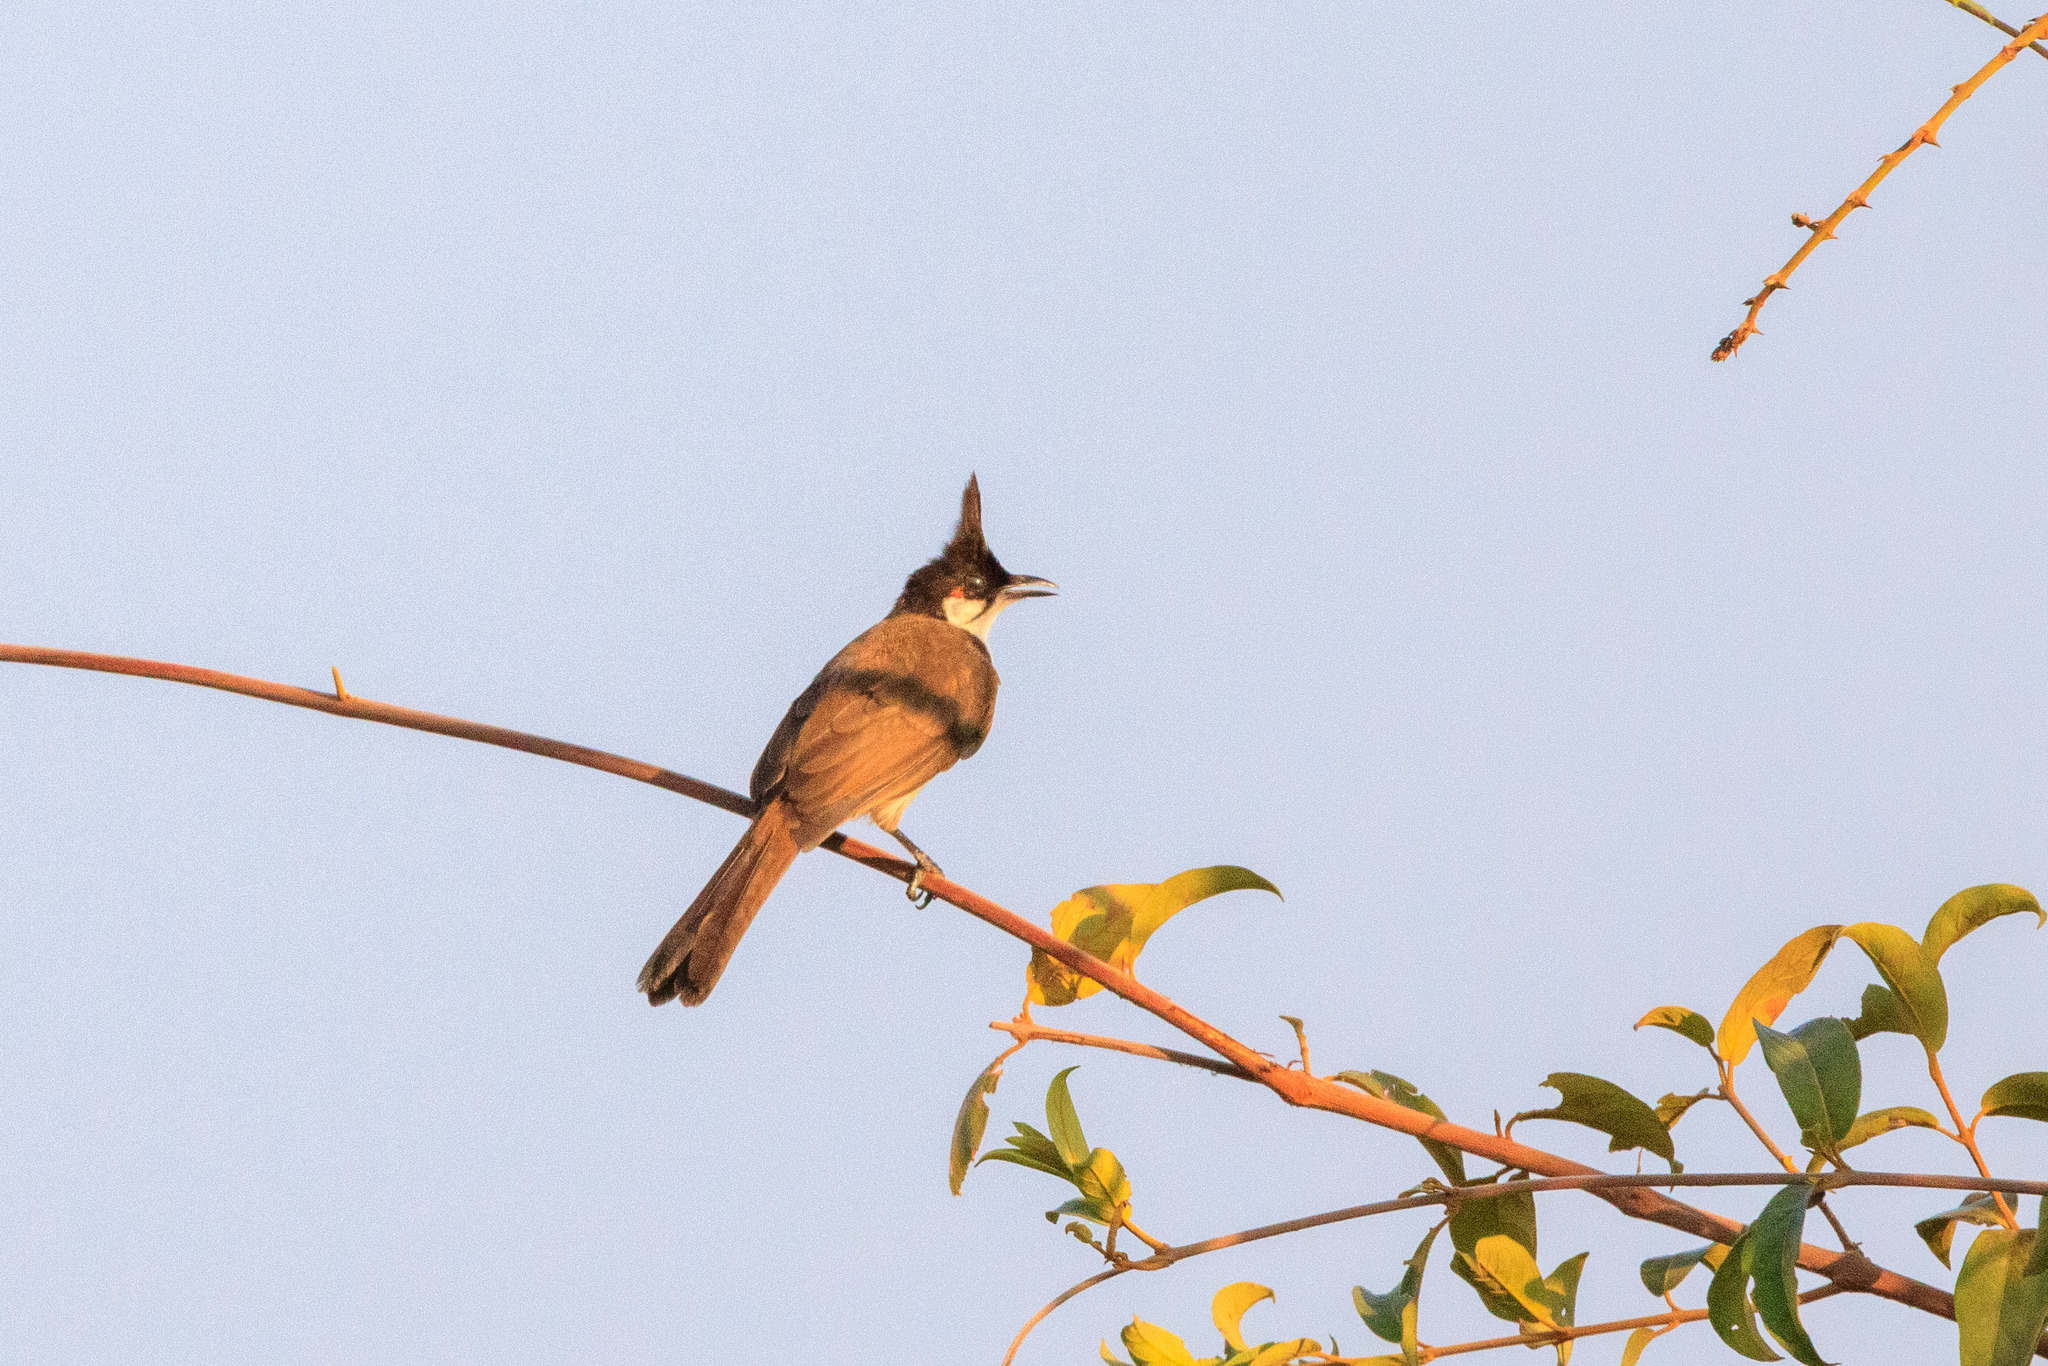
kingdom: Animalia
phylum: Chordata
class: Aves
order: Passeriformes
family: Pycnonotidae
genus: Pycnonotus
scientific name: Pycnonotus jocosus
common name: Red-whiskered bulbul
